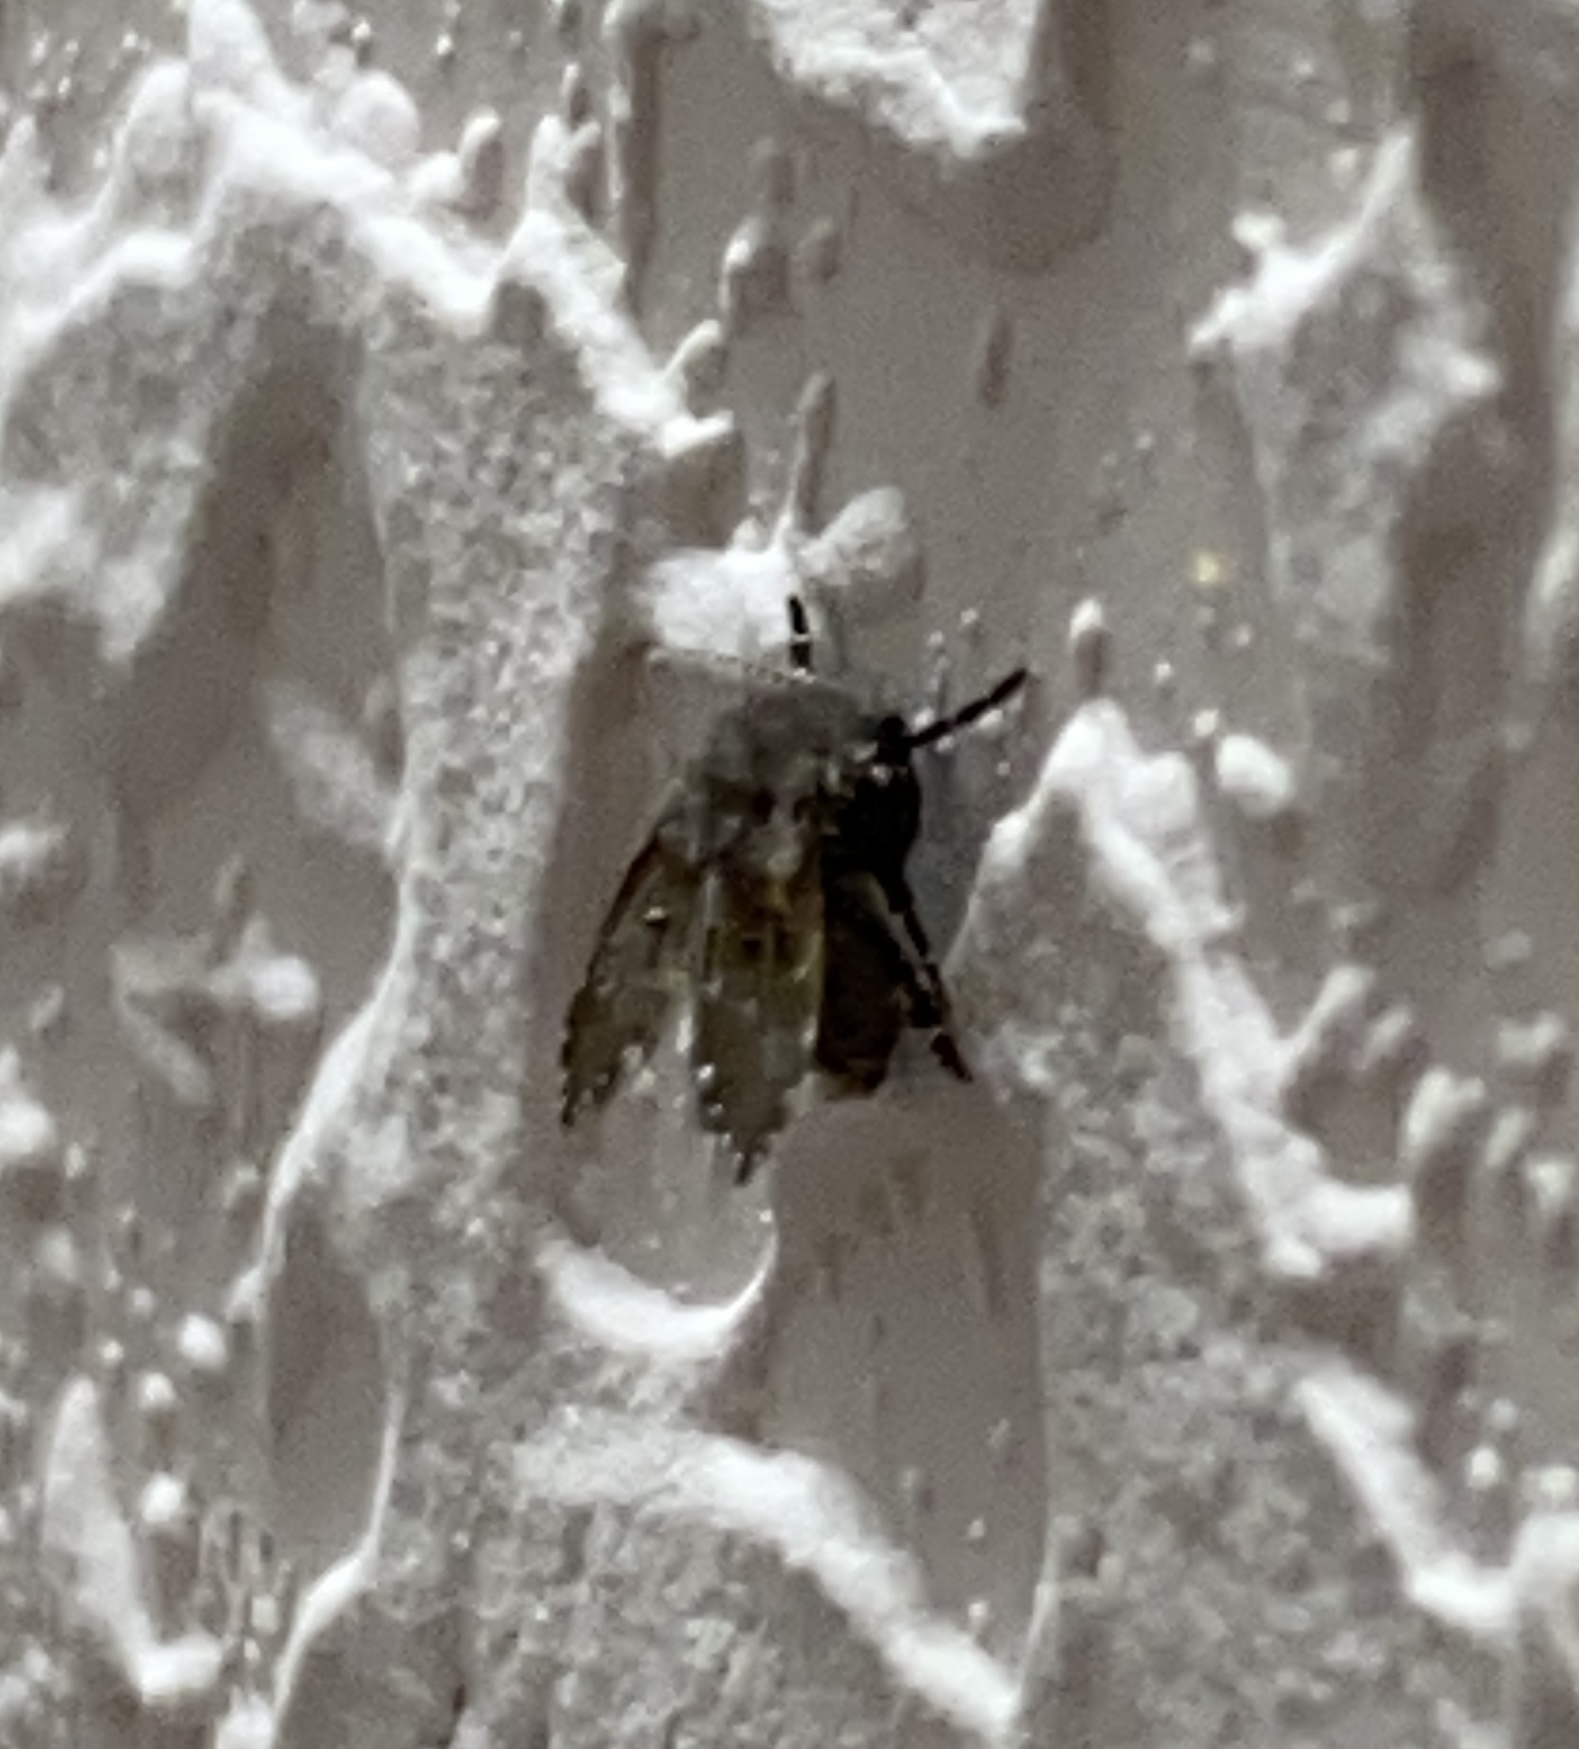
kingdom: Animalia
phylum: Arthropoda
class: Insecta
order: Diptera
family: Psychodidae
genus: Clogmia
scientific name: Clogmia albipunctatus
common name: White-spotted moth fly
